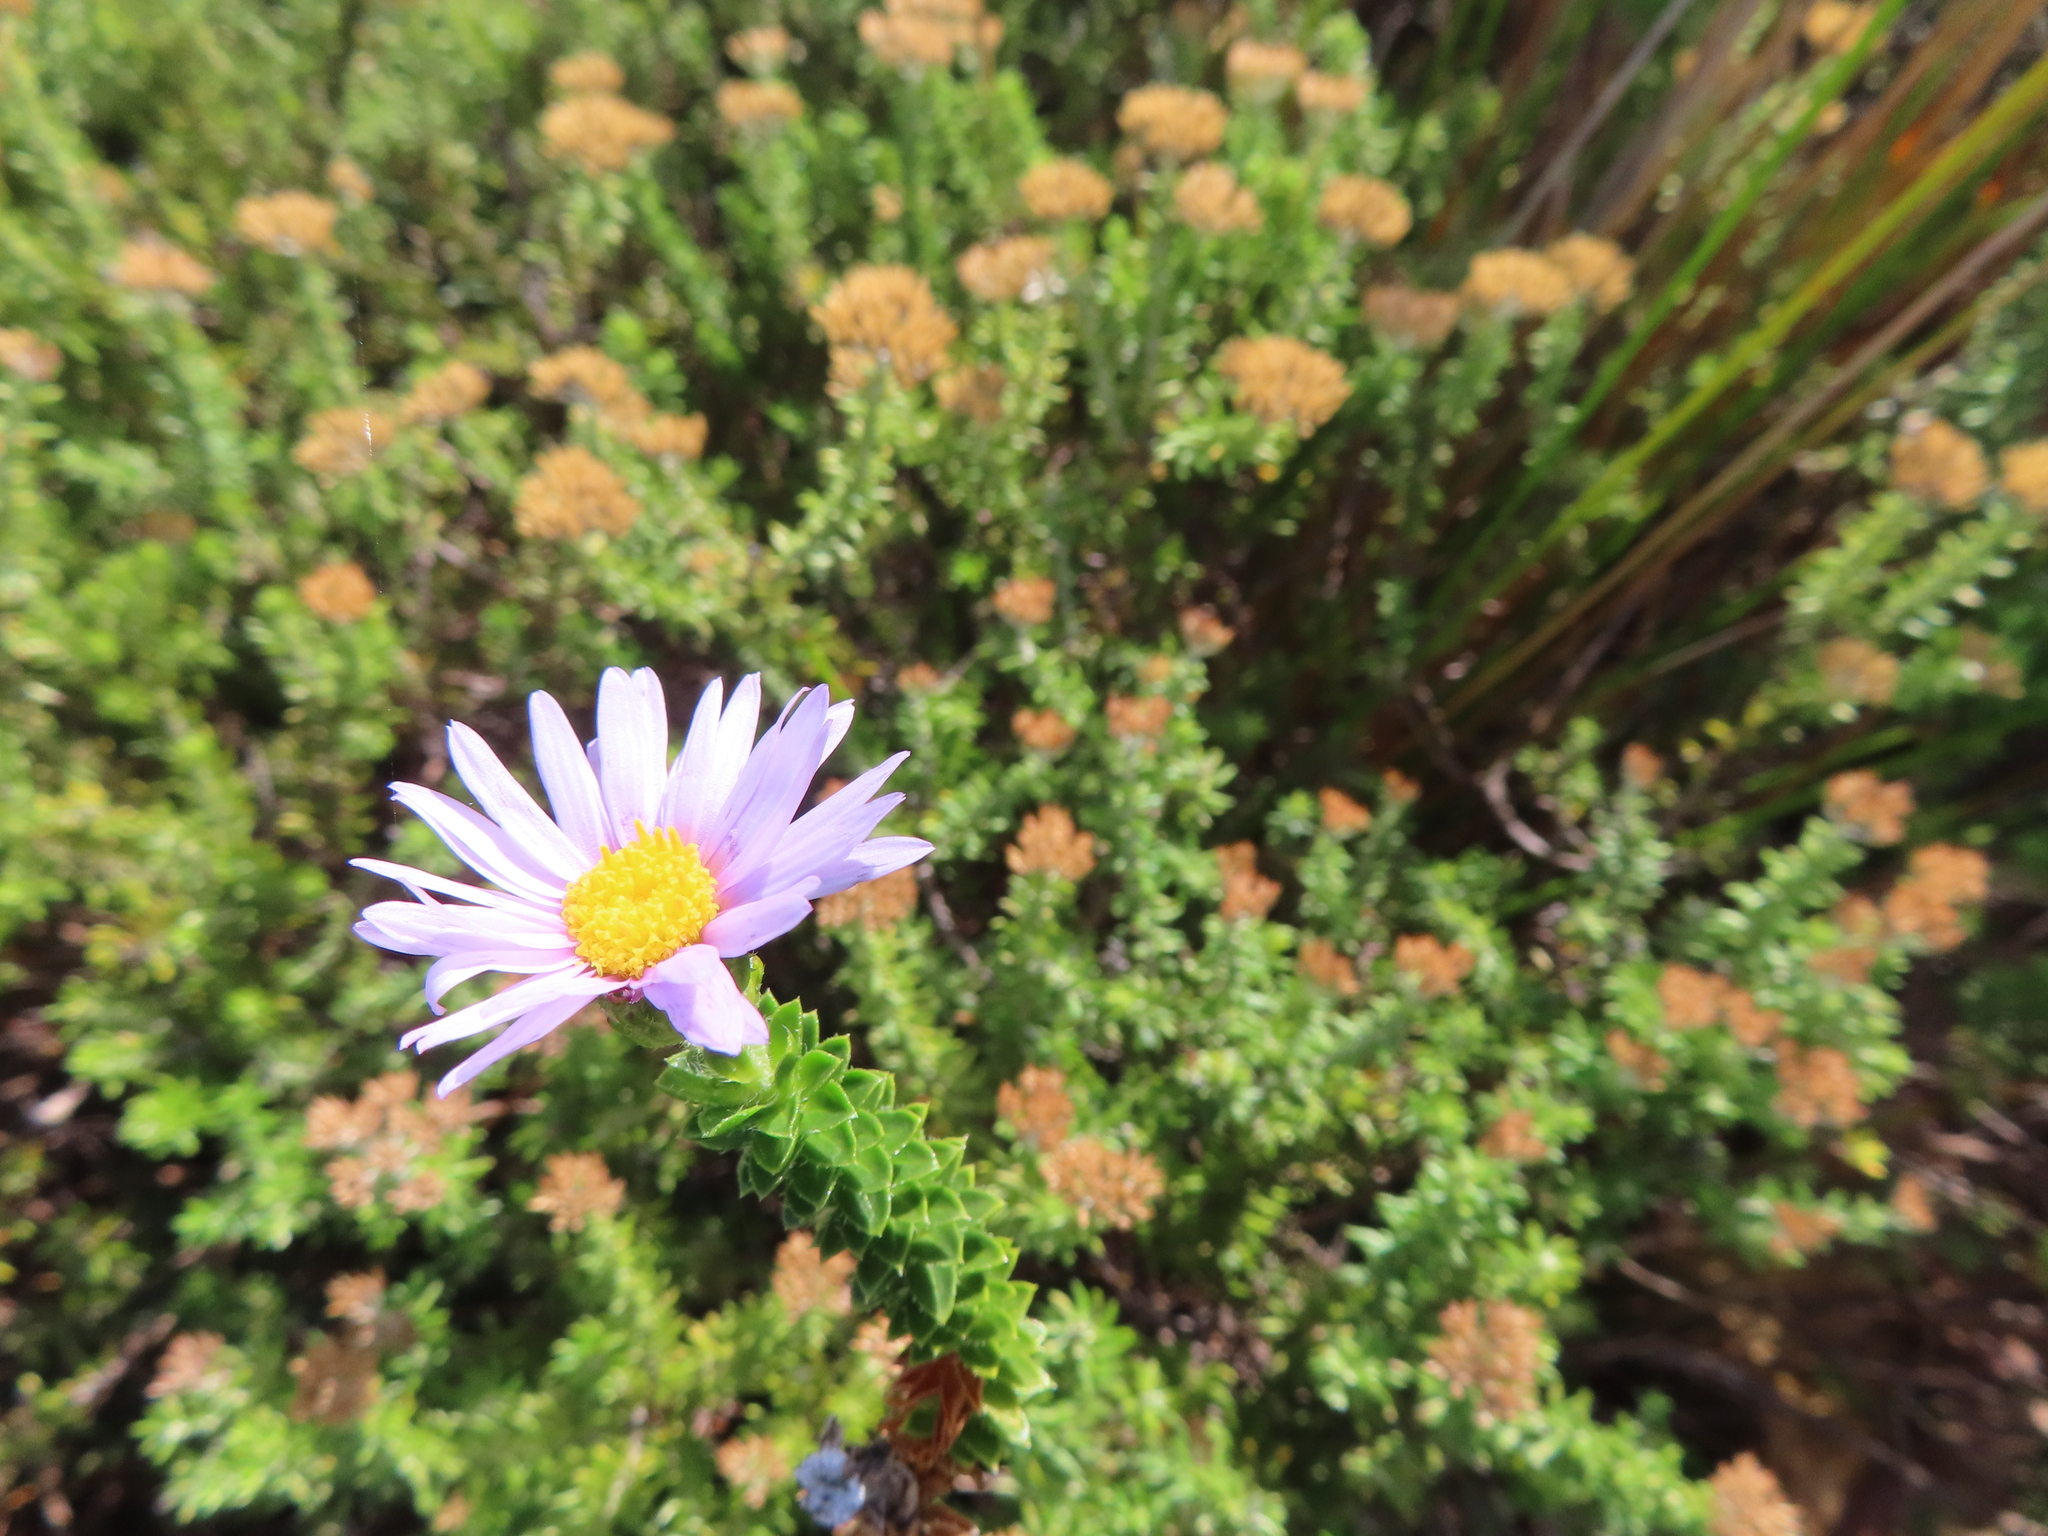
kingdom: Plantae
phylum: Tracheophyta
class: Magnoliopsida
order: Asterales
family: Asteraceae
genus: Felicia
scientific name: Felicia echinata
